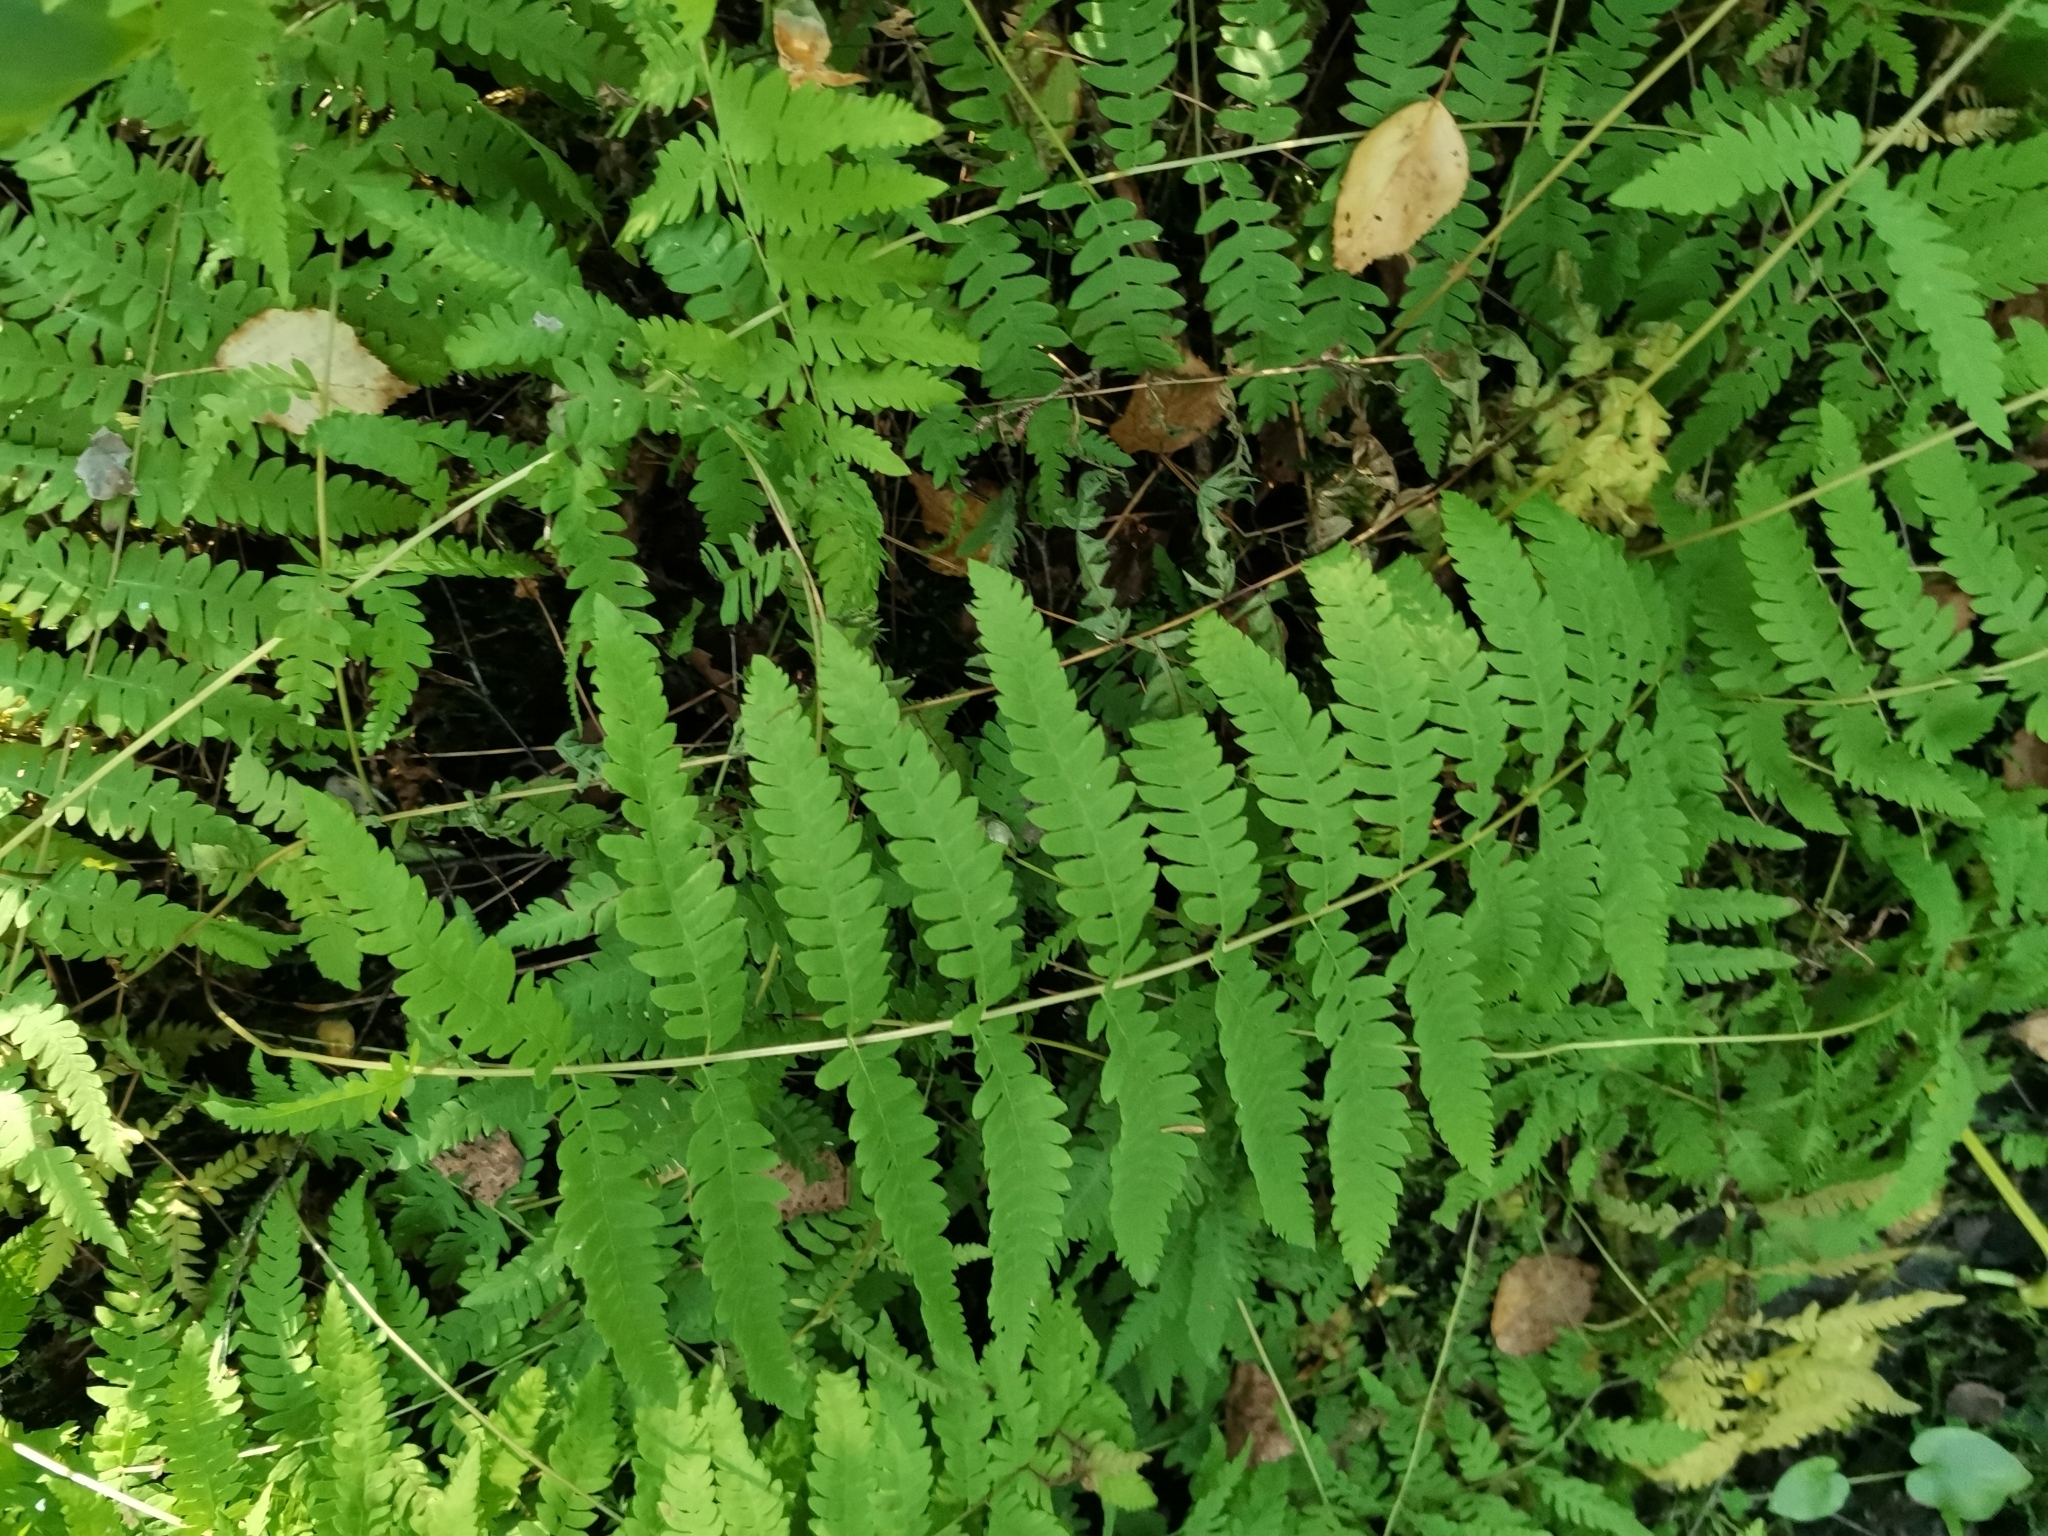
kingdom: Plantae
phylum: Tracheophyta
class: Polypodiopsida
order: Polypodiales
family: Thelypteridaceae
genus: Thelypteris
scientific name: Thelypteris palustris
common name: Marsh fern
